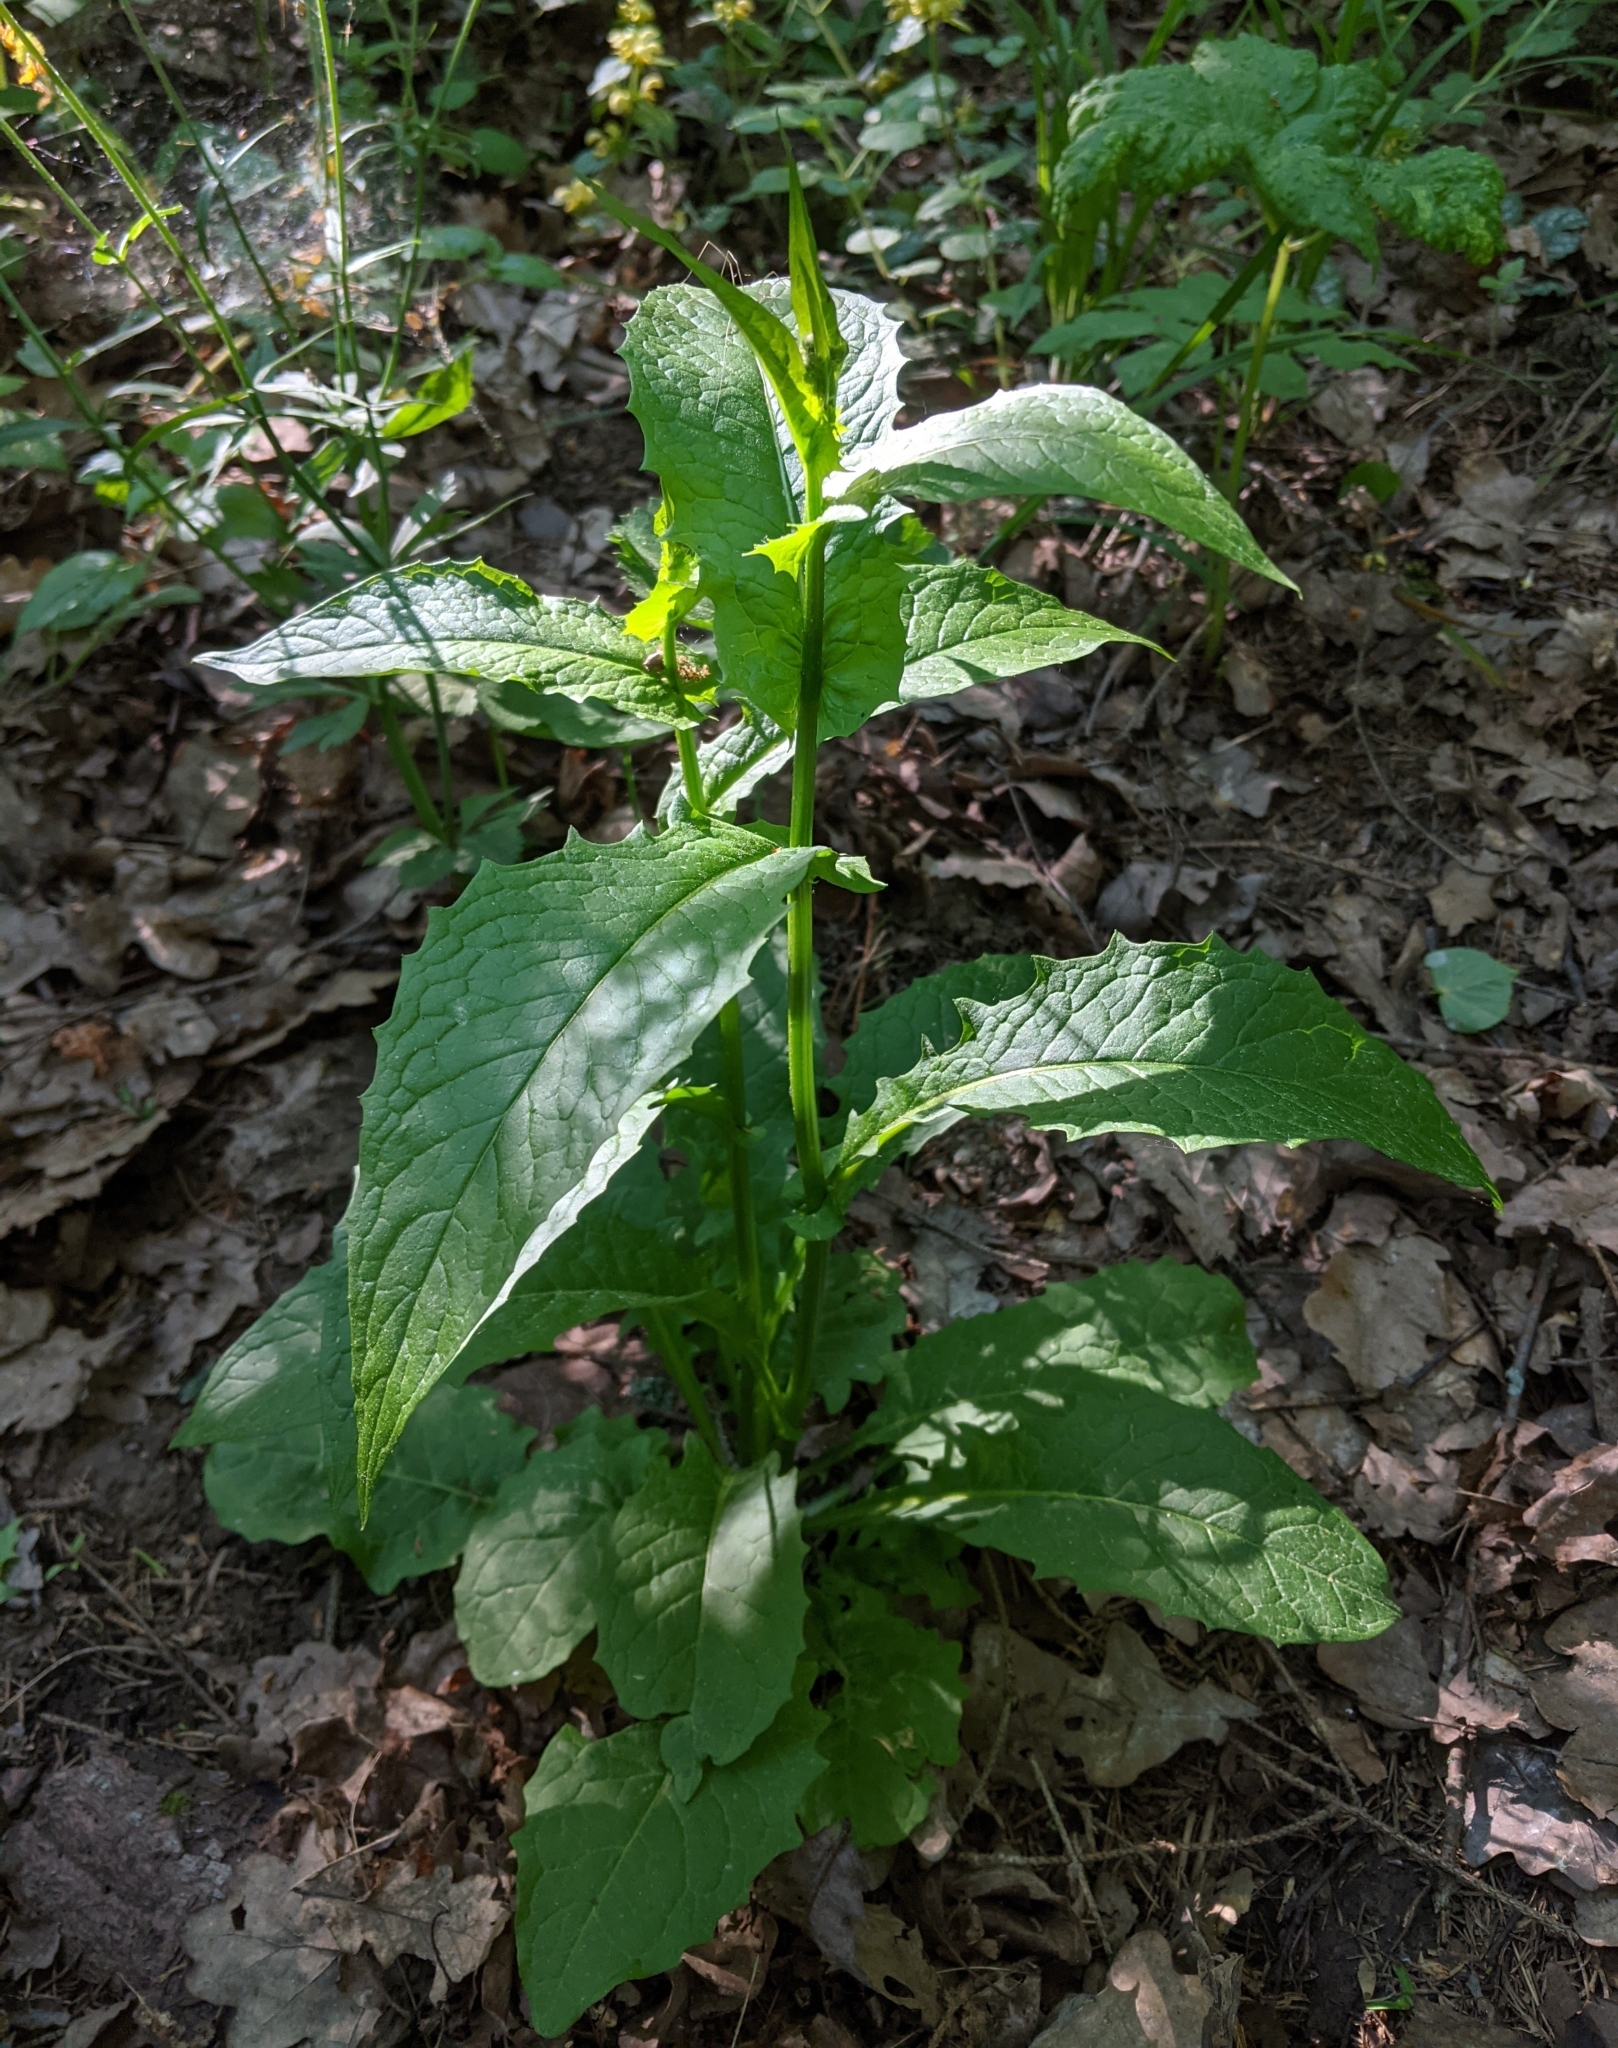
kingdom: Plantae
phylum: Tracheophyta
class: Magnoliopsida
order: Asterales
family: Asteraceae
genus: Crepis
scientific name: Crepis paludosa
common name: Marsh hawk's-beard
